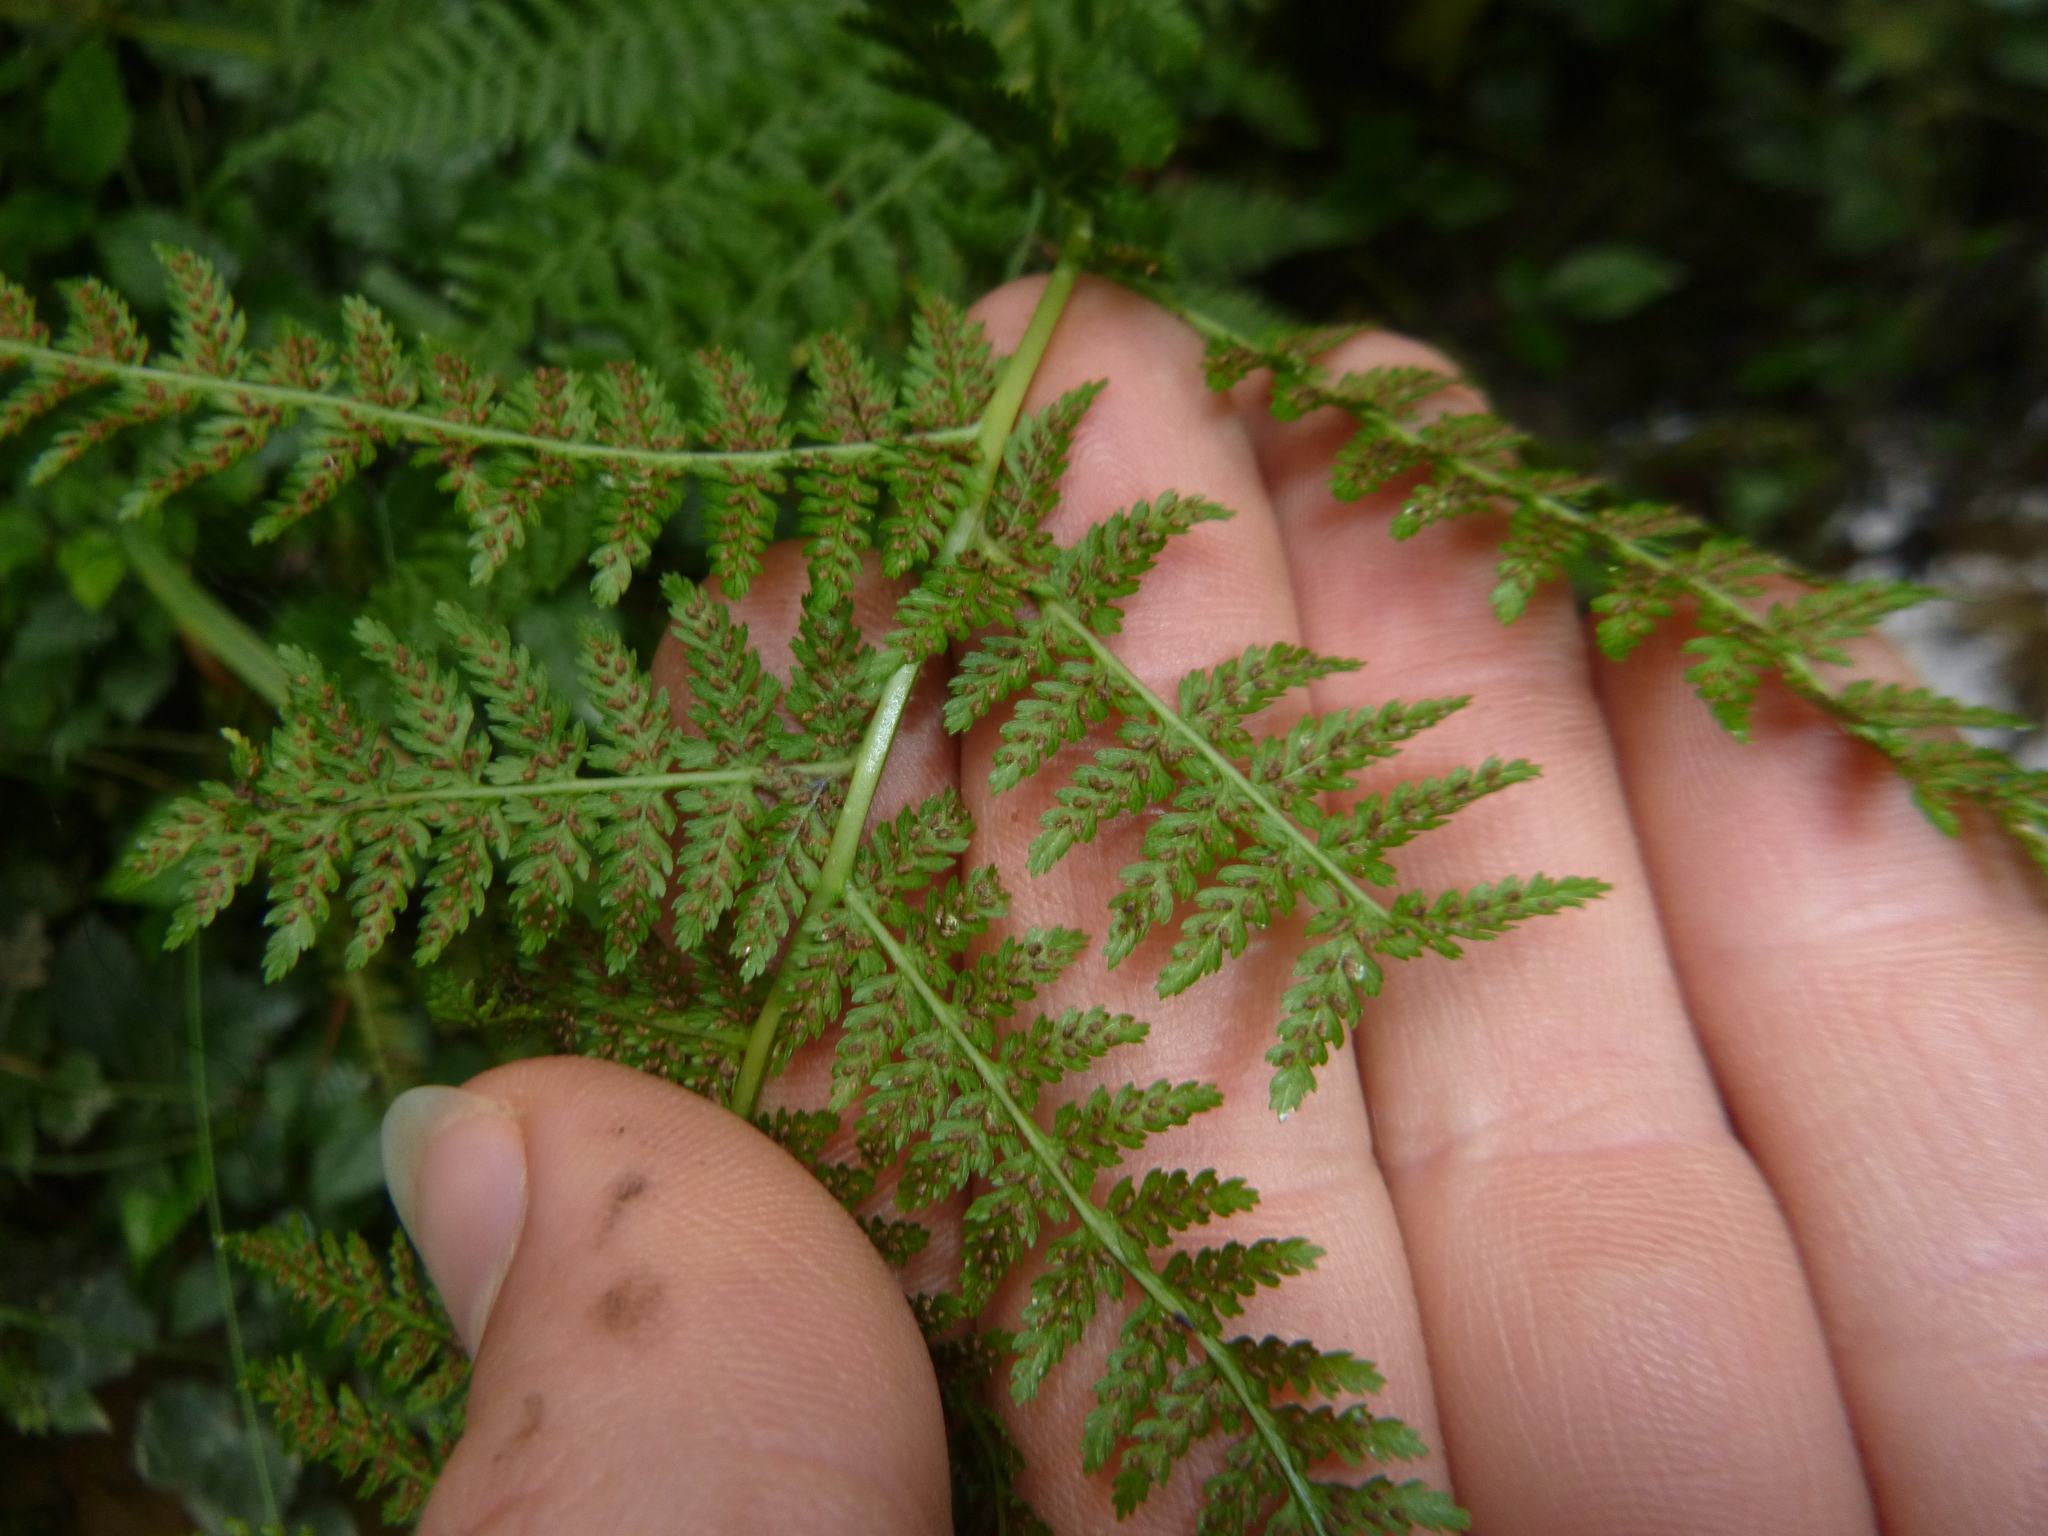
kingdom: Plantae
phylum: Tracheophyta
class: Polypodiopsida
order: Polypodiales
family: Athyriaceae
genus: Athyrium
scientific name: Athyrium filix-femina
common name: Lady fern
